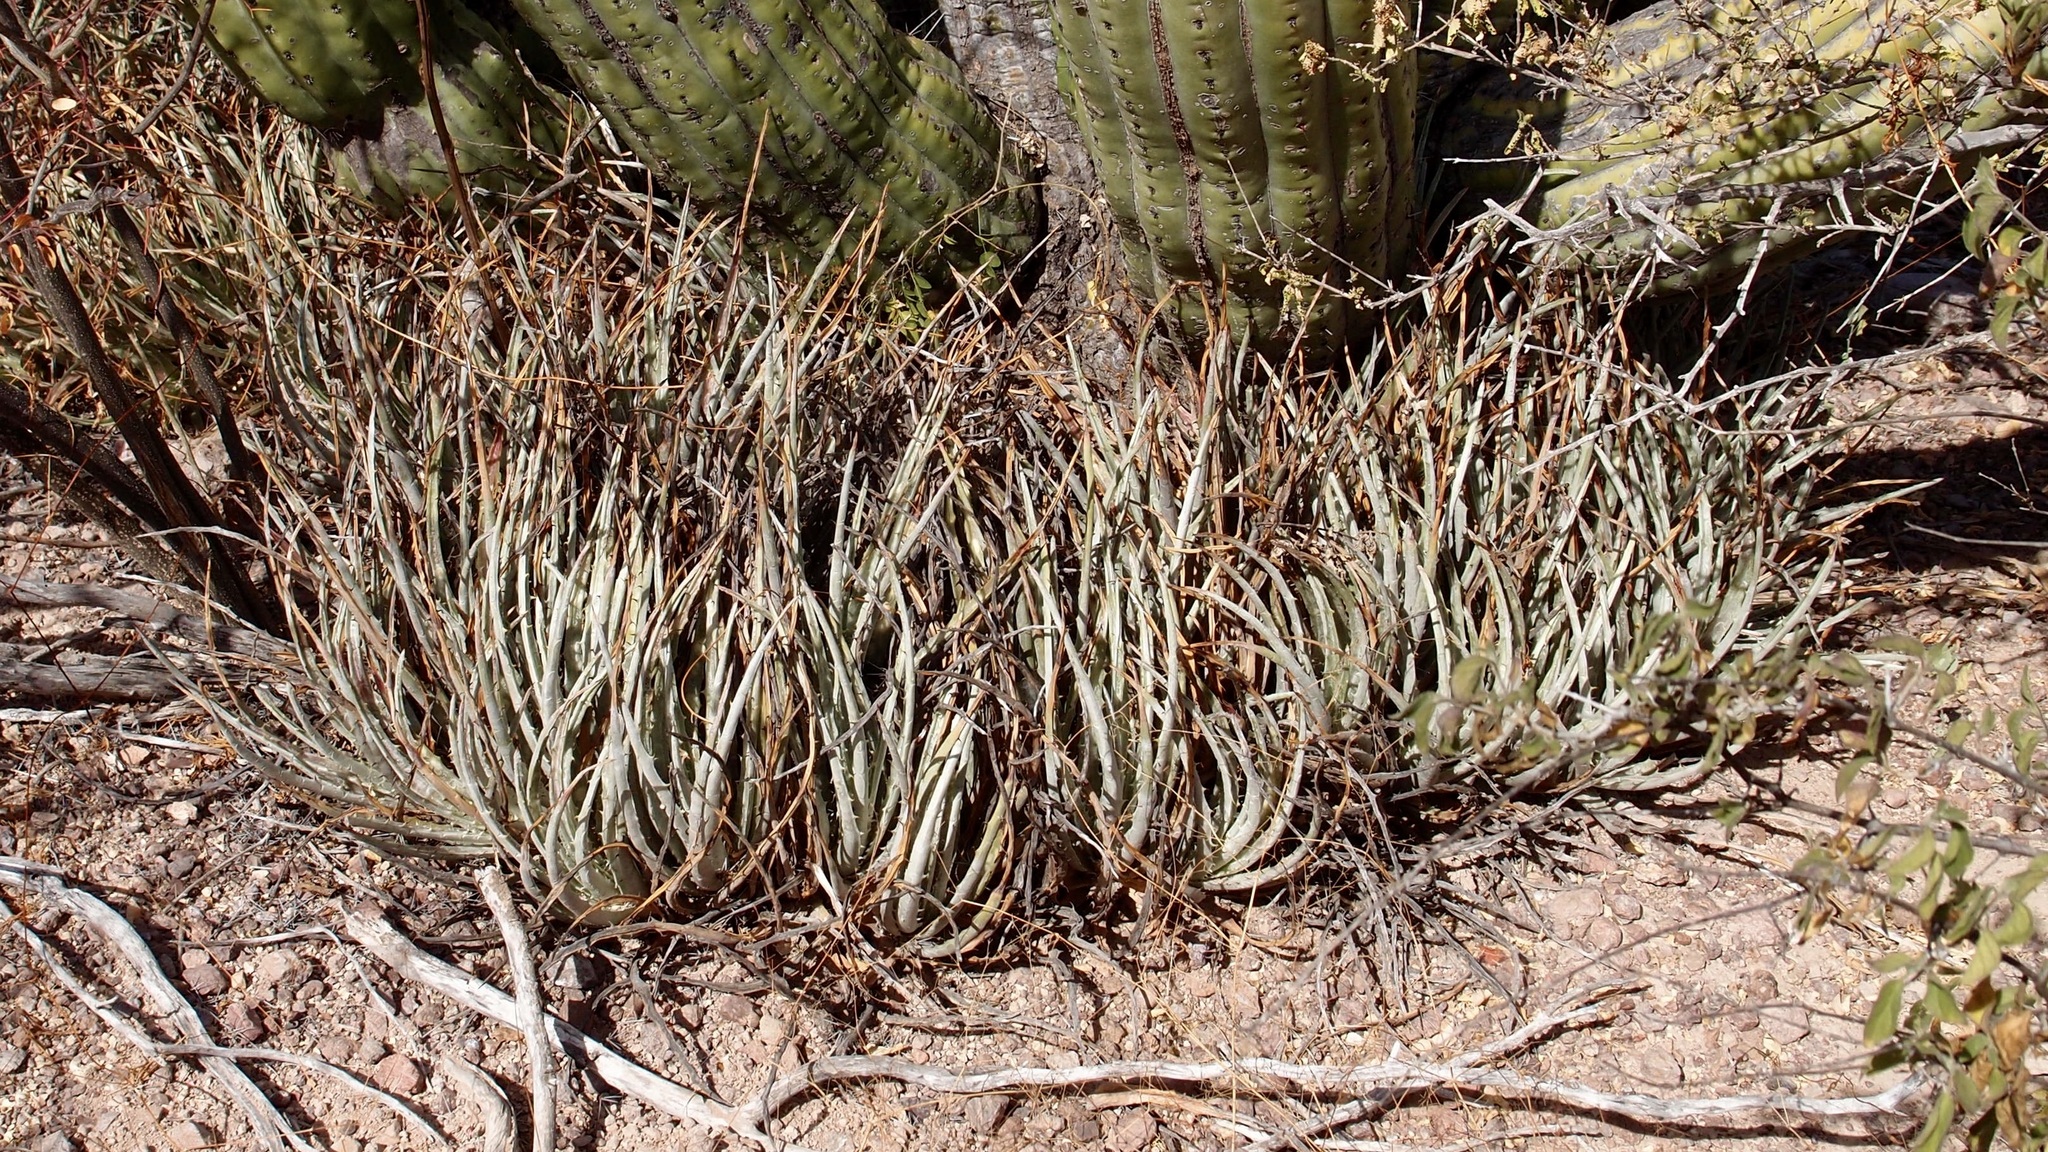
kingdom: Plantae
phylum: Tracheophyta
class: Liliopsida
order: Poales
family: Bromeliaceae
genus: Hechtia
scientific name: Hechtia montana
